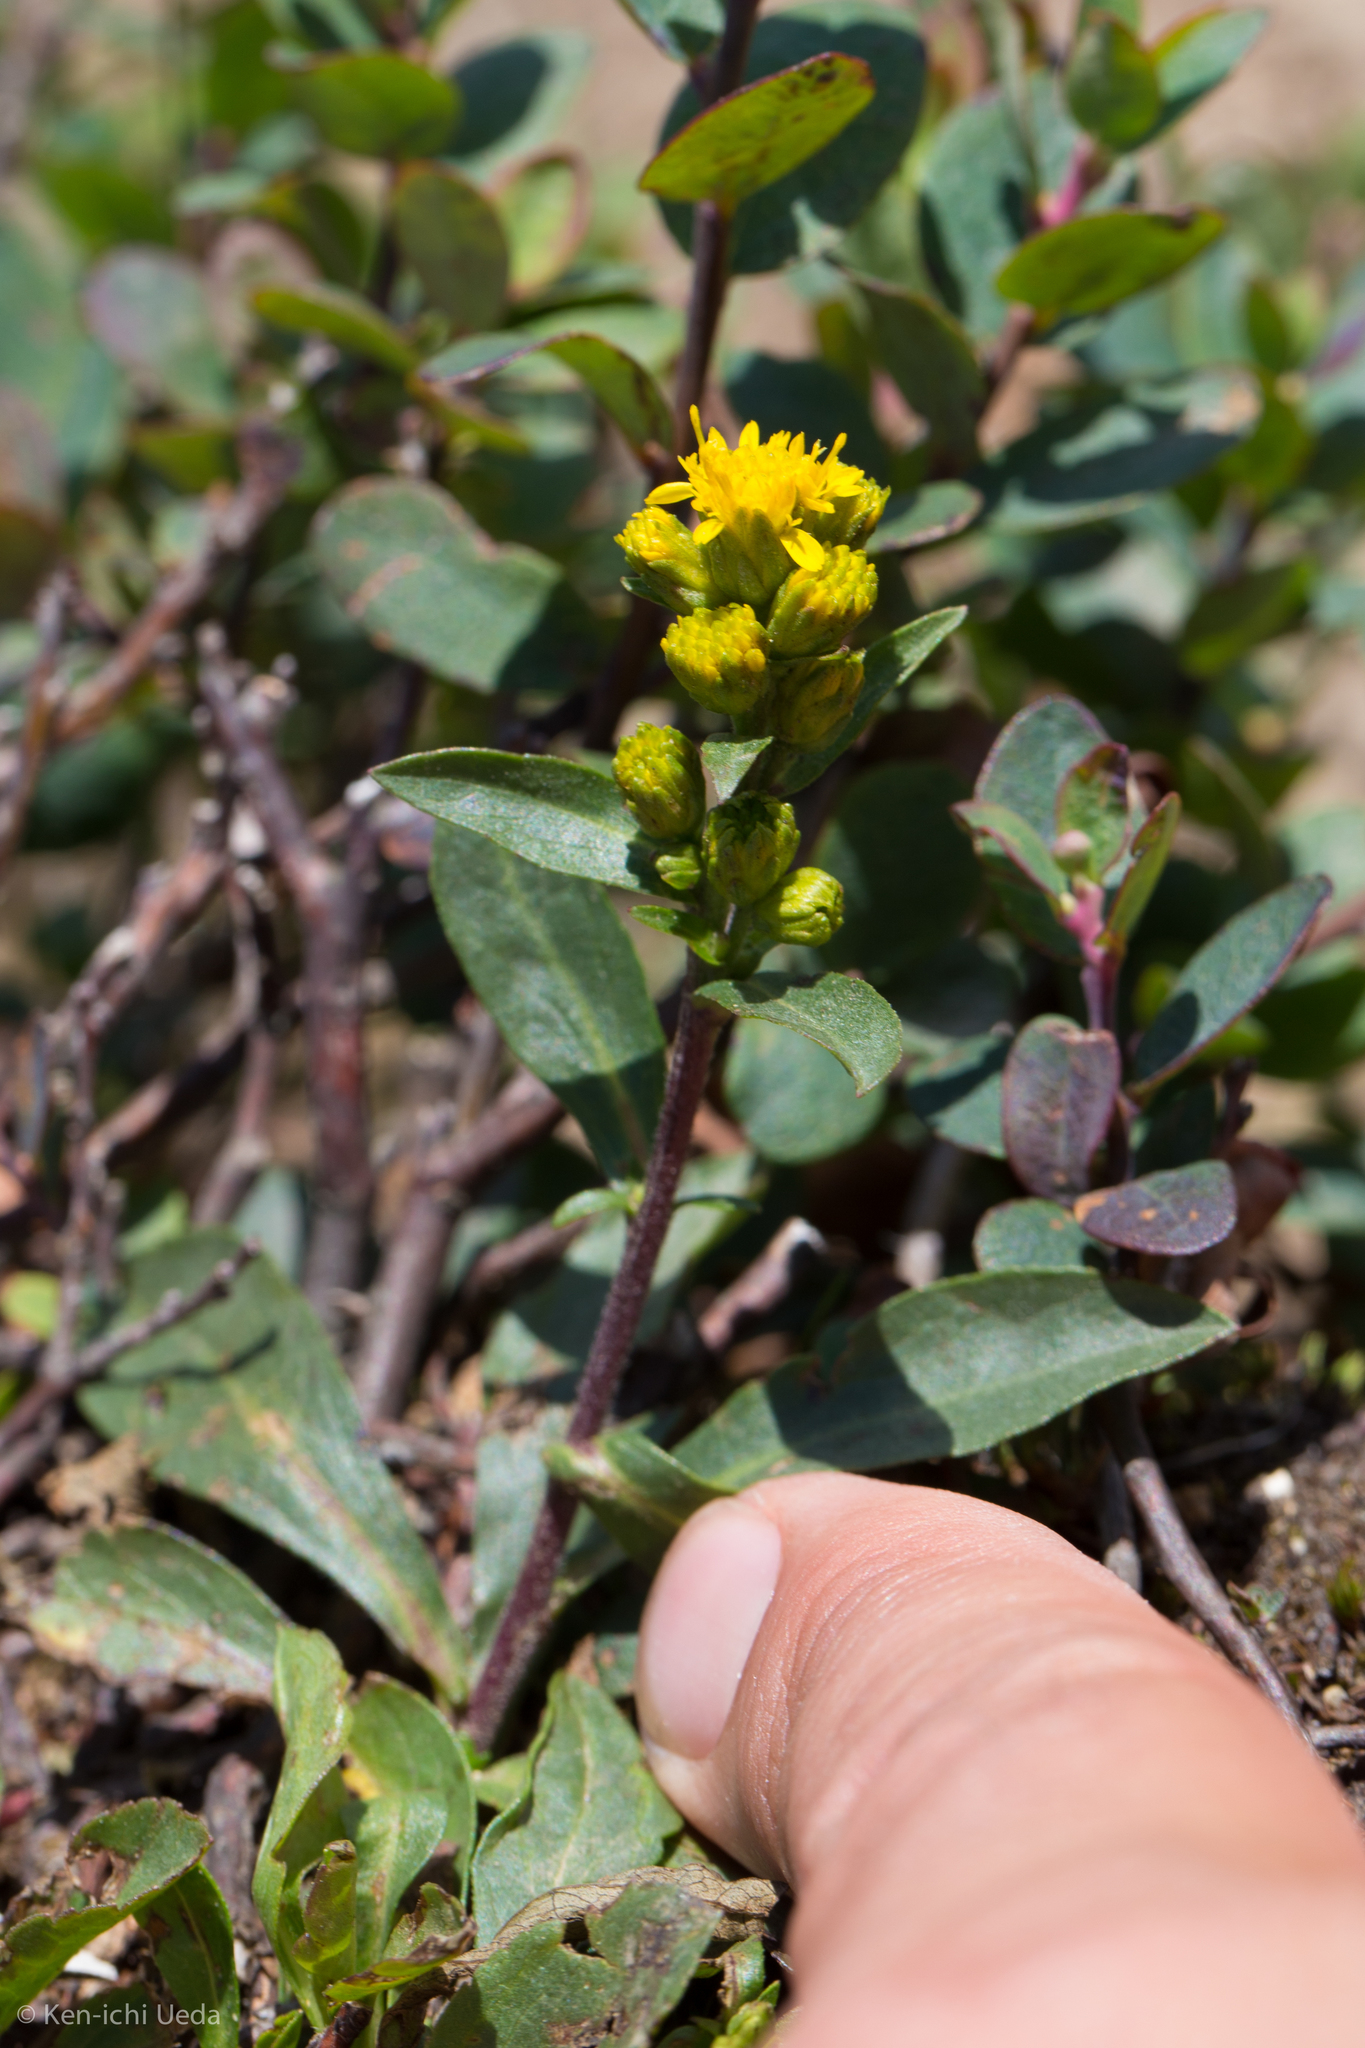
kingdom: Plantae
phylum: Tracheophyta
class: Magnoliopsida
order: Asterales
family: Asteraceae
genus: Solidago
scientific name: Solidago leiocarpa
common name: Cutler's alpine goldenrod
